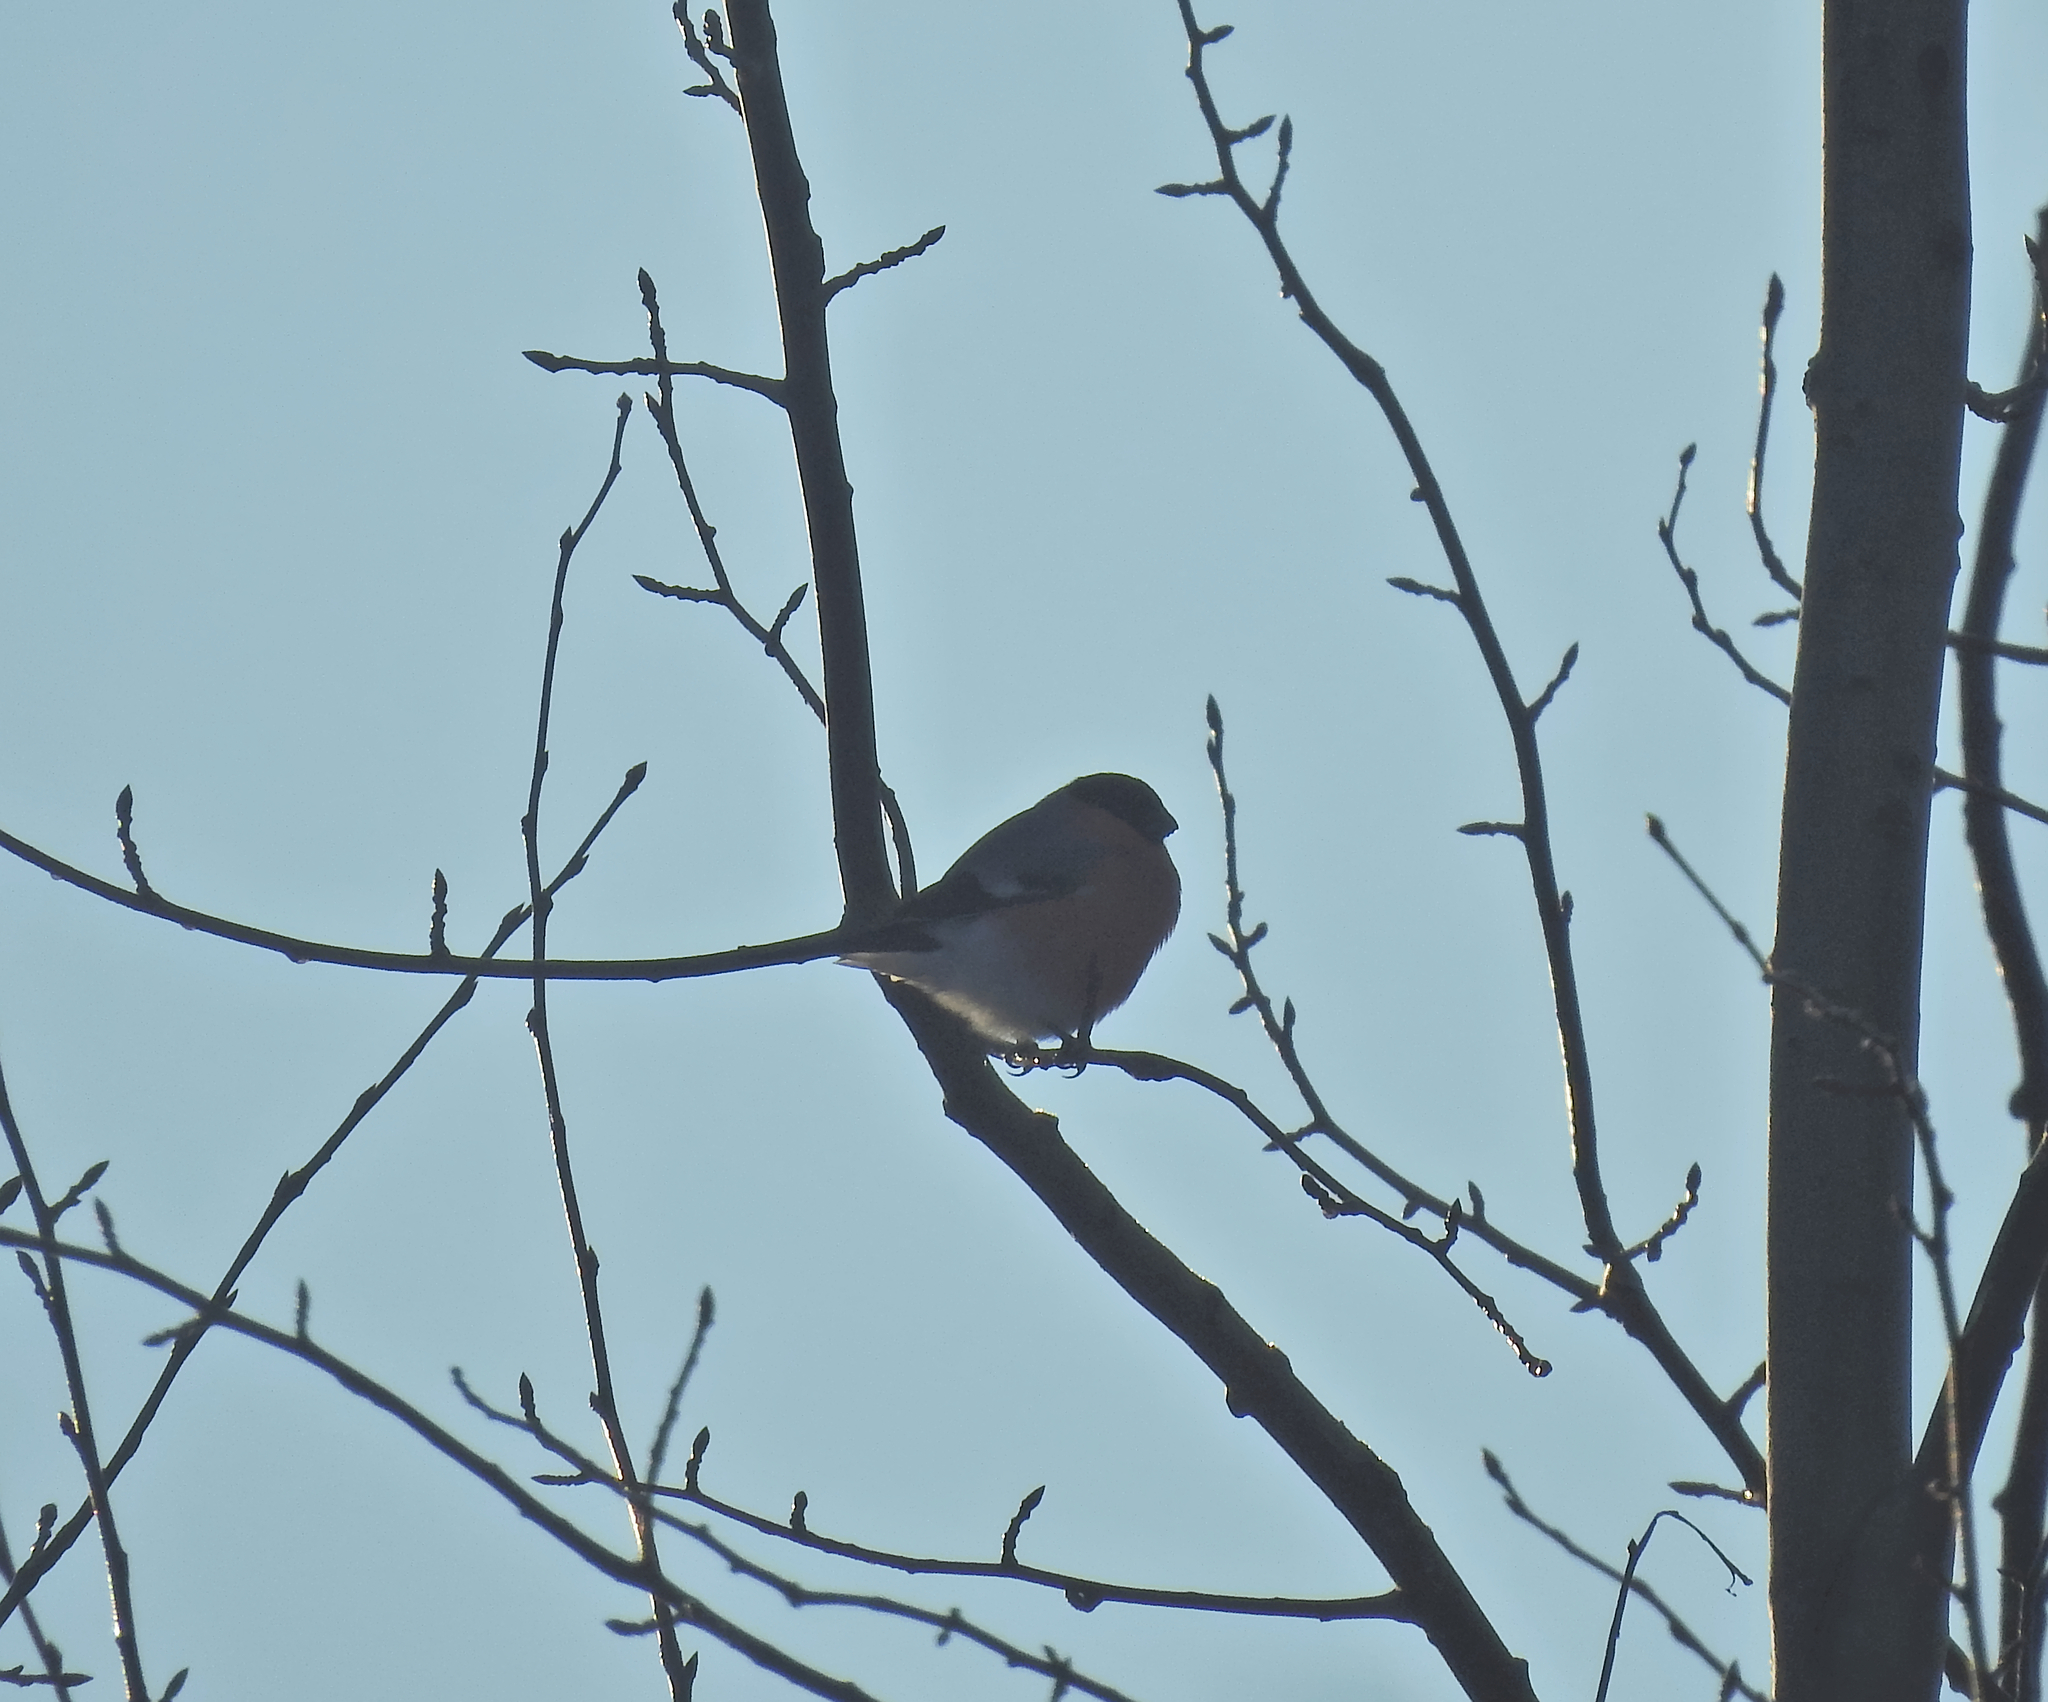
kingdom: Animalia
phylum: Chordata
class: Aves
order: Passeriformes
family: Fringillidae
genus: Pyrrhula
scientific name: Pyrrhula pyrrhula
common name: Eurasian bullfinch
